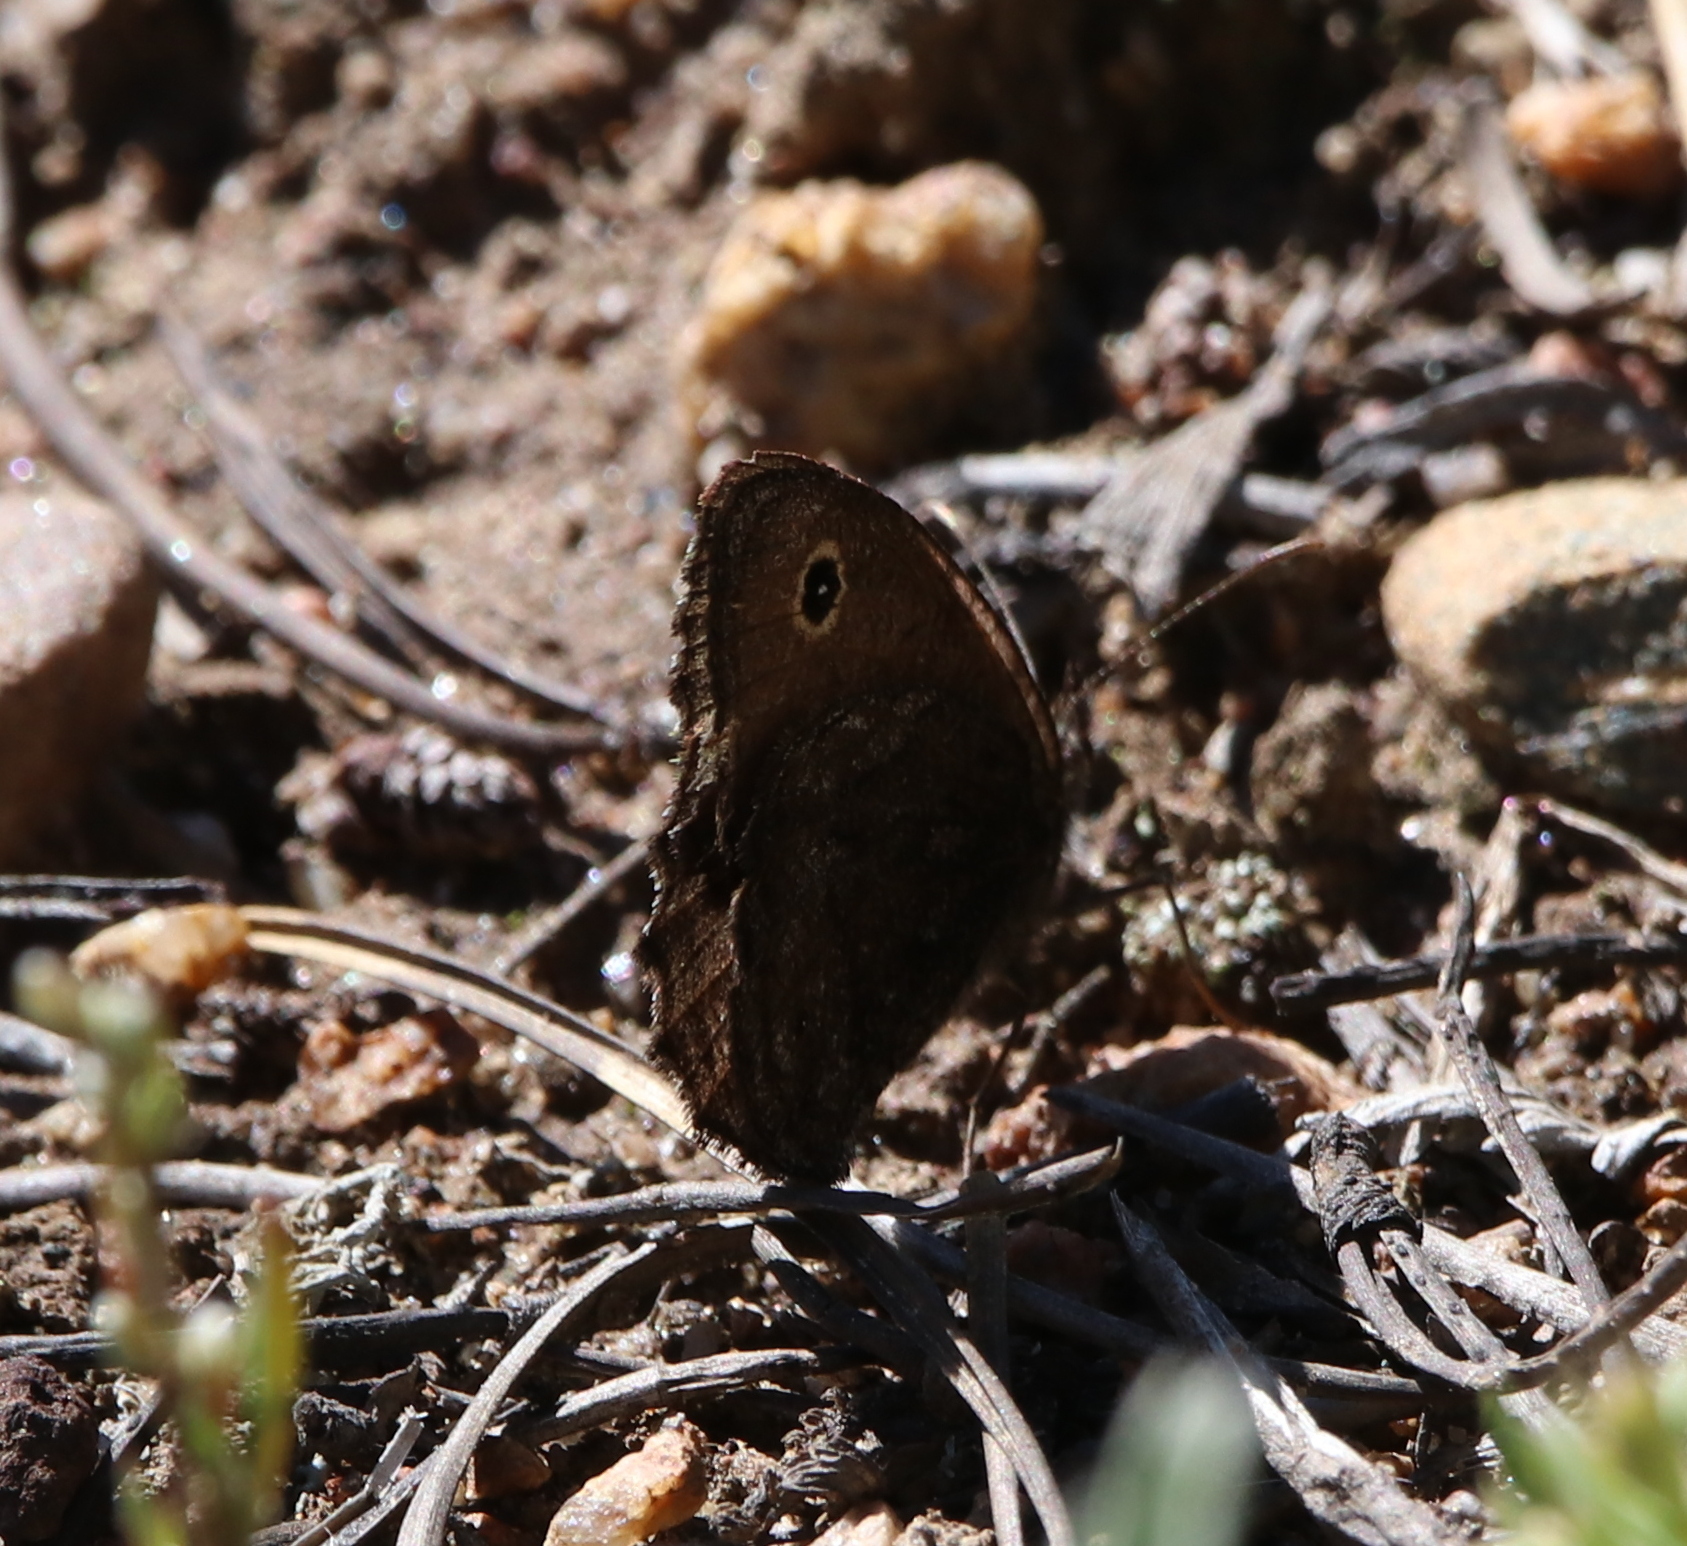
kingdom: Animalia
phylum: Arthropoda
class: Insecta
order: Lepidoptera
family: Nymphalidae
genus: Cercyonis
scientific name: Cercyonis oetus
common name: Small wood-nymph
